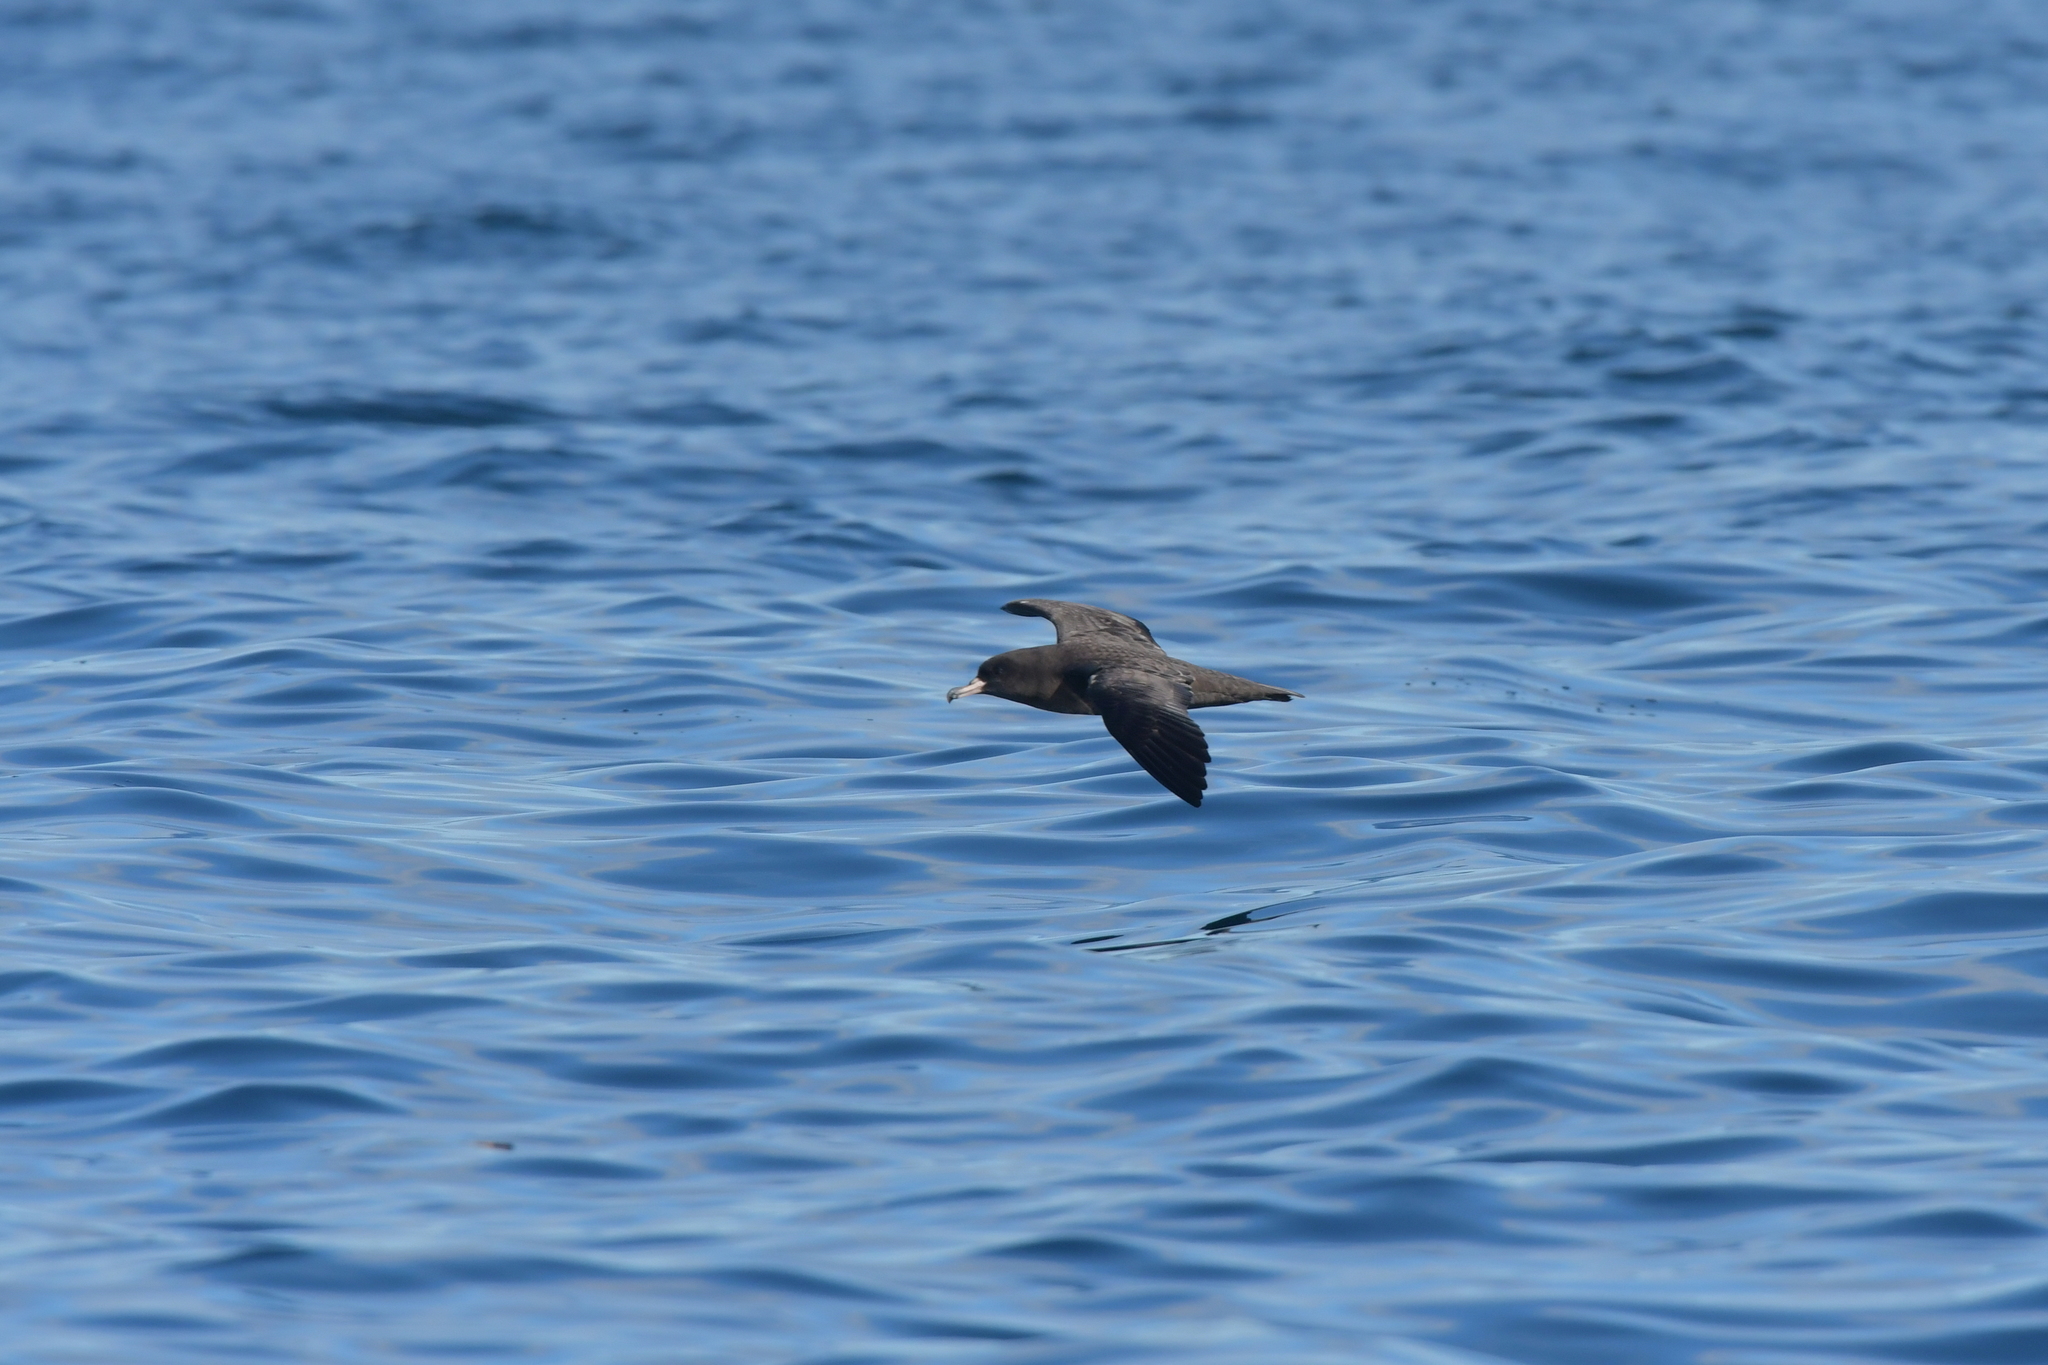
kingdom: Animalia
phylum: Chordata
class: Aves
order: Procellariiformes
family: Procellariidae
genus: Puffinus
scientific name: Puffinus carneipes
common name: Flesh-footed shearwater
